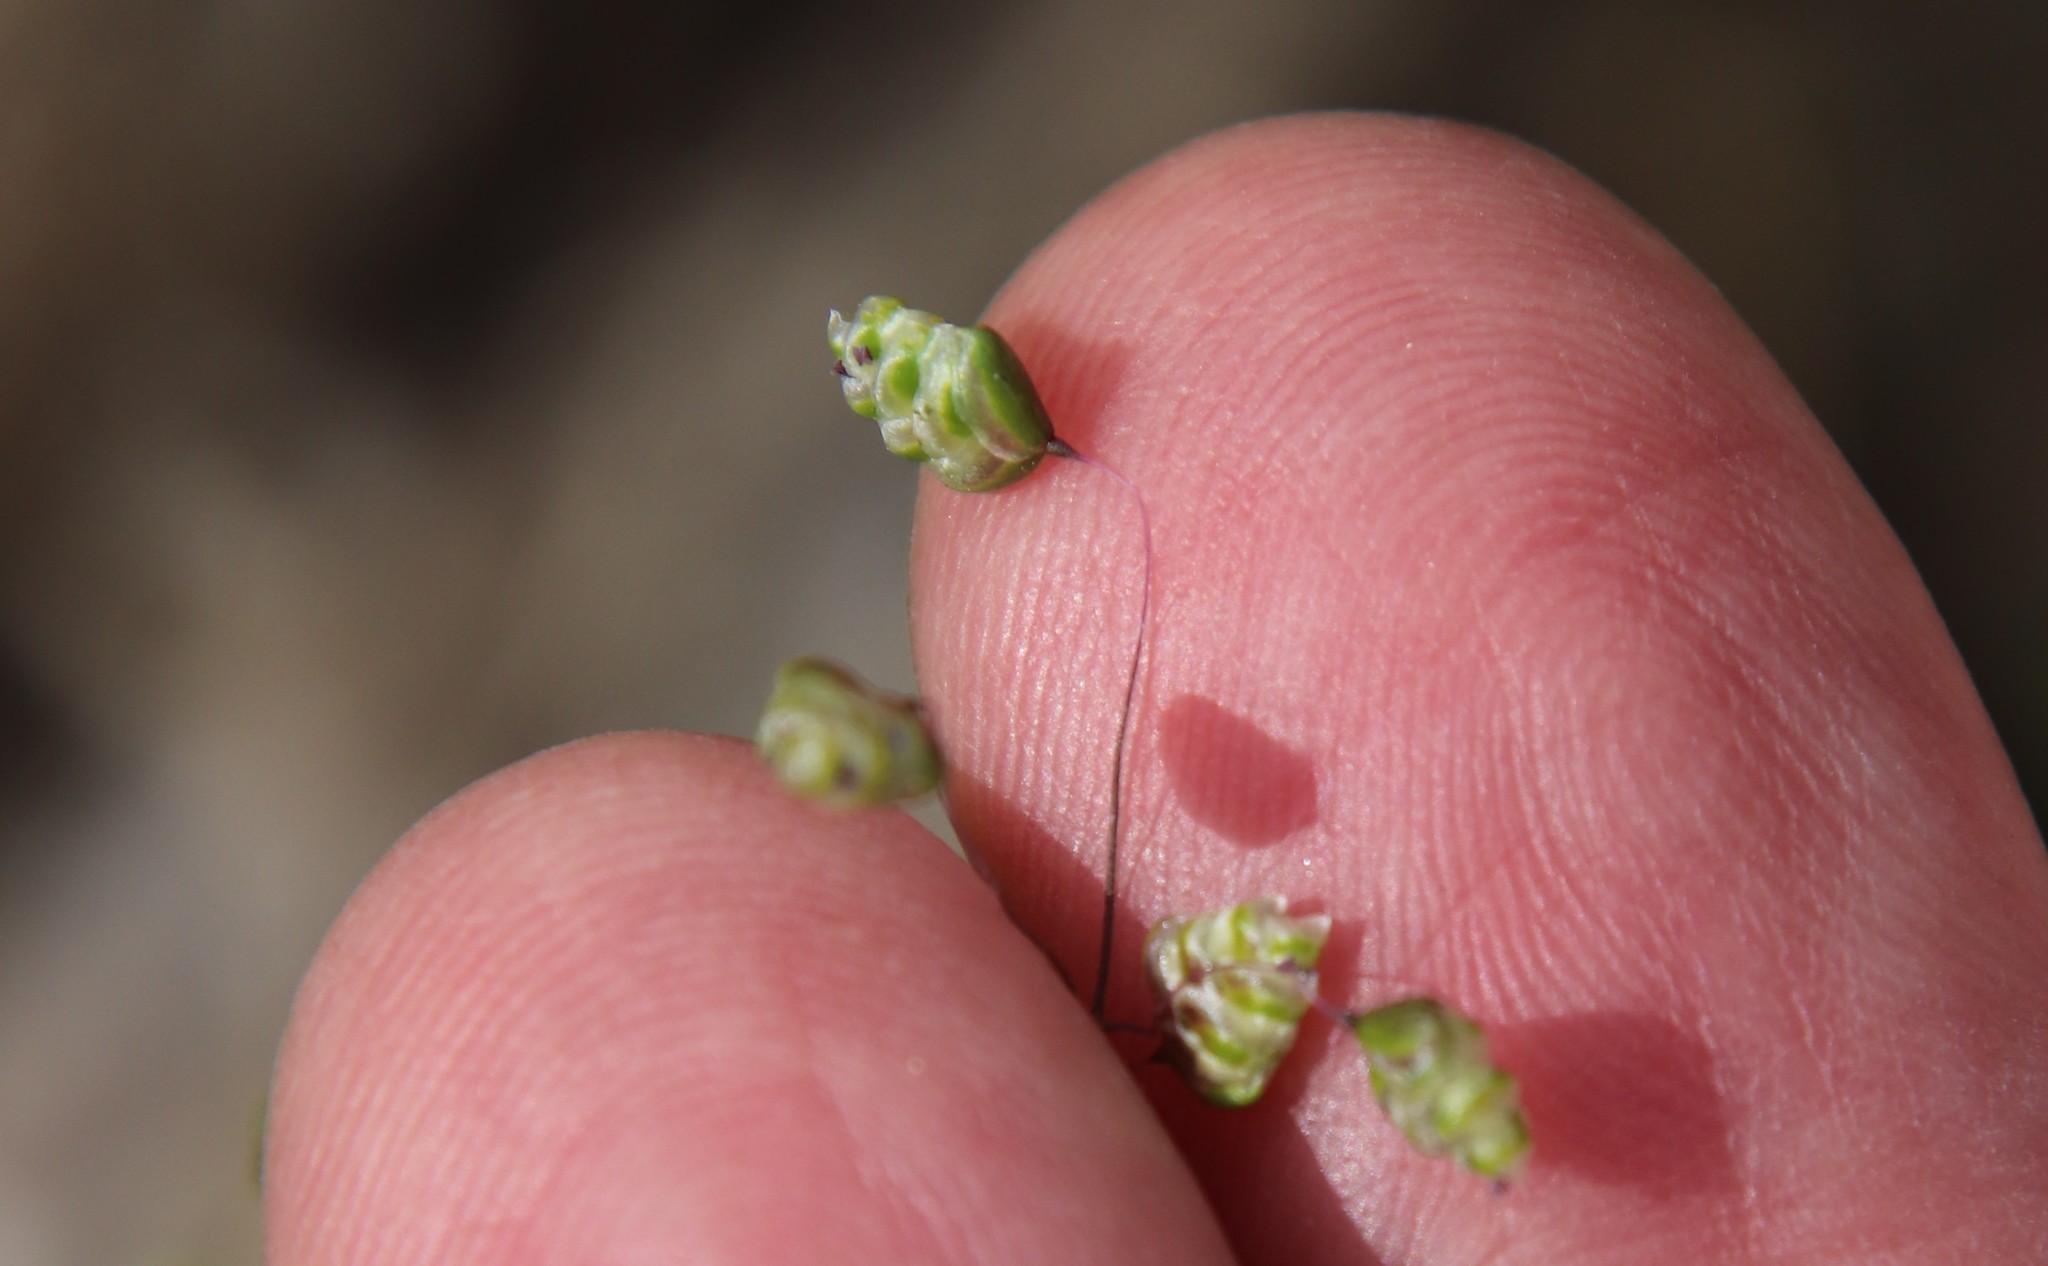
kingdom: Plantae
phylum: Tracheophyta
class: Liliopsida
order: Poales
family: Poaceae
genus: Briza
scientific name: Briza minor
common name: Lesser quaking-grass
